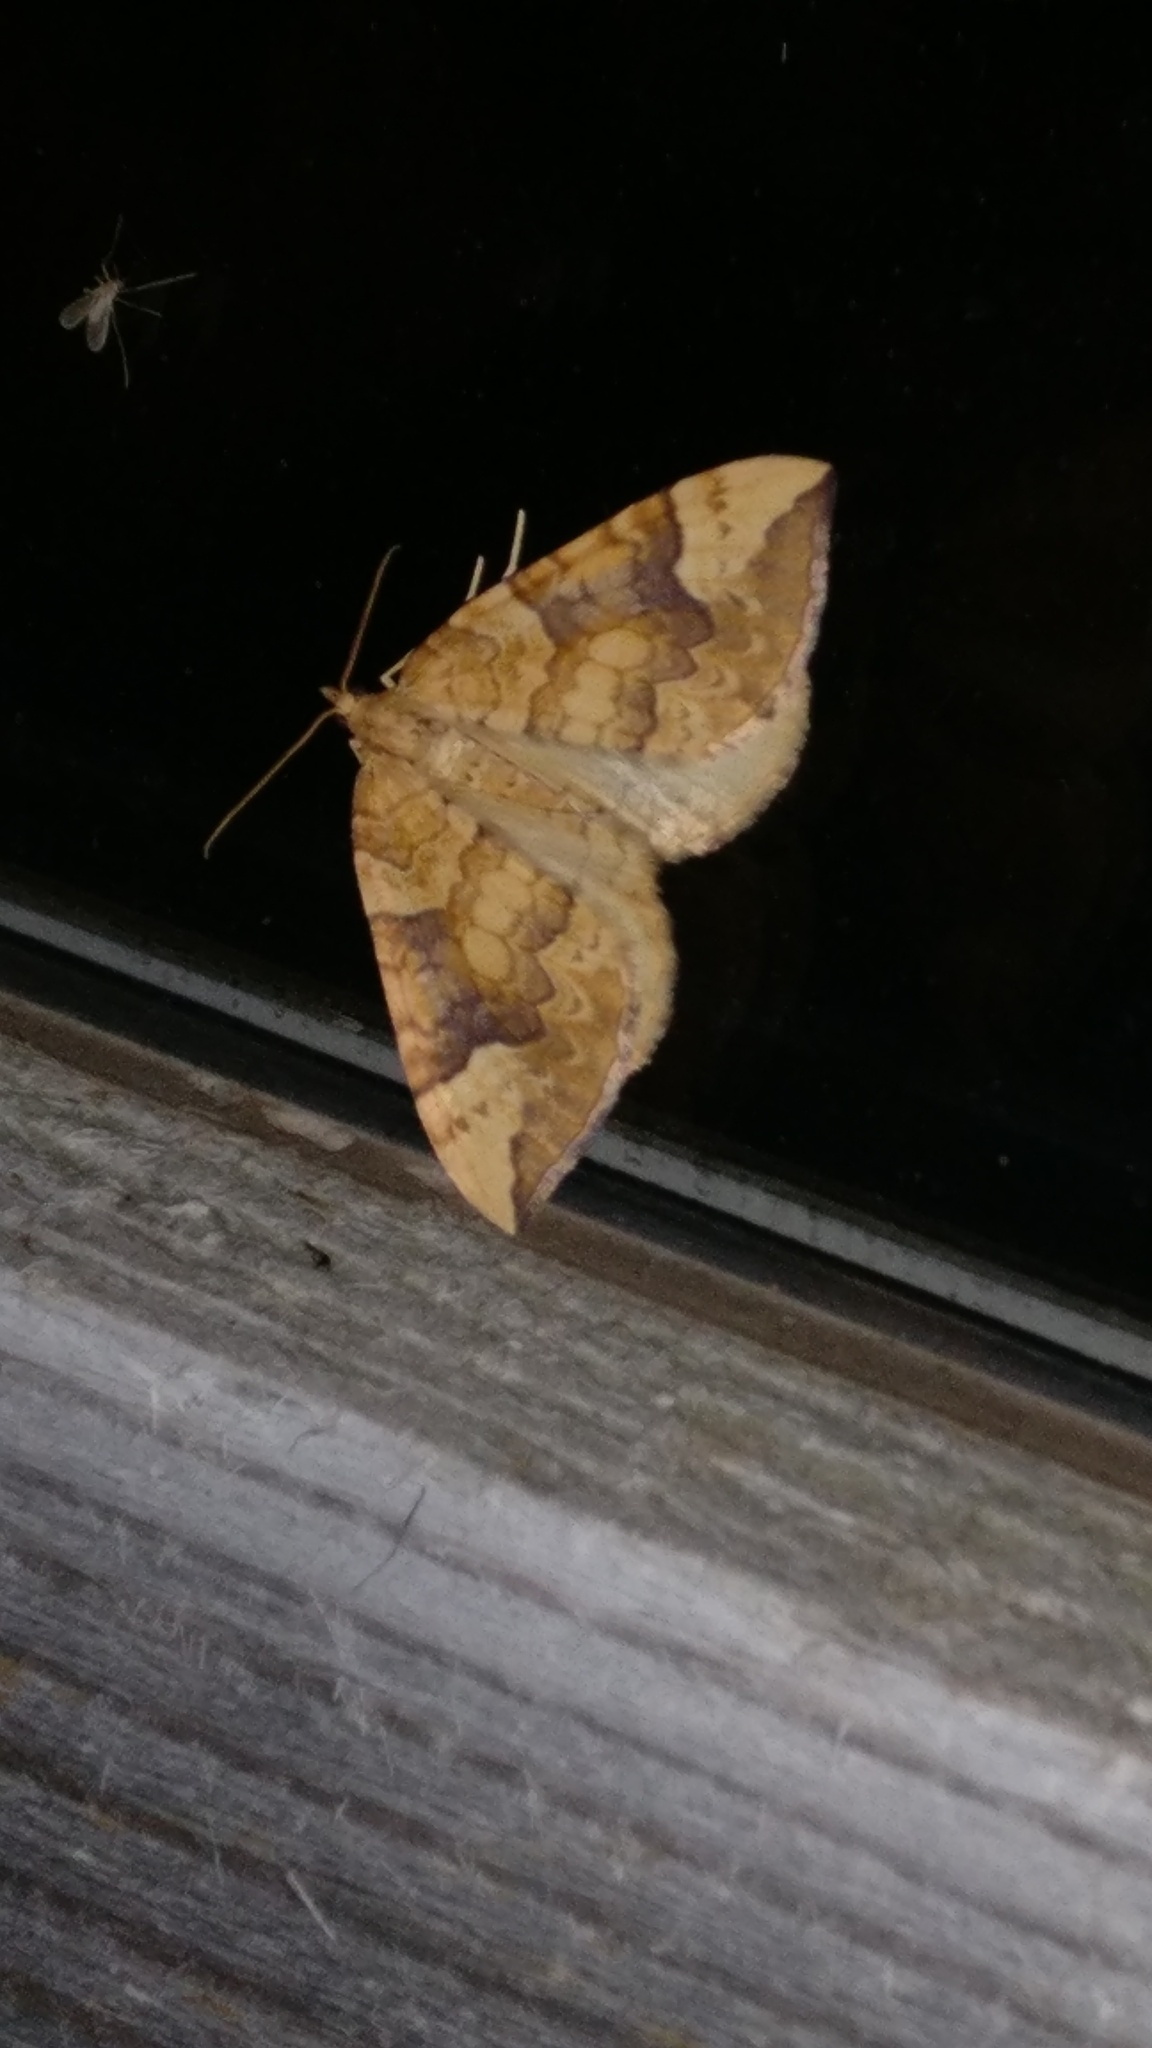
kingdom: Animalia
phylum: Arthropoda
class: Insecta
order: Lepidoptera
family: Geometridae
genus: Eulithis
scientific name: Eulithis populata
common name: Northern spinach
